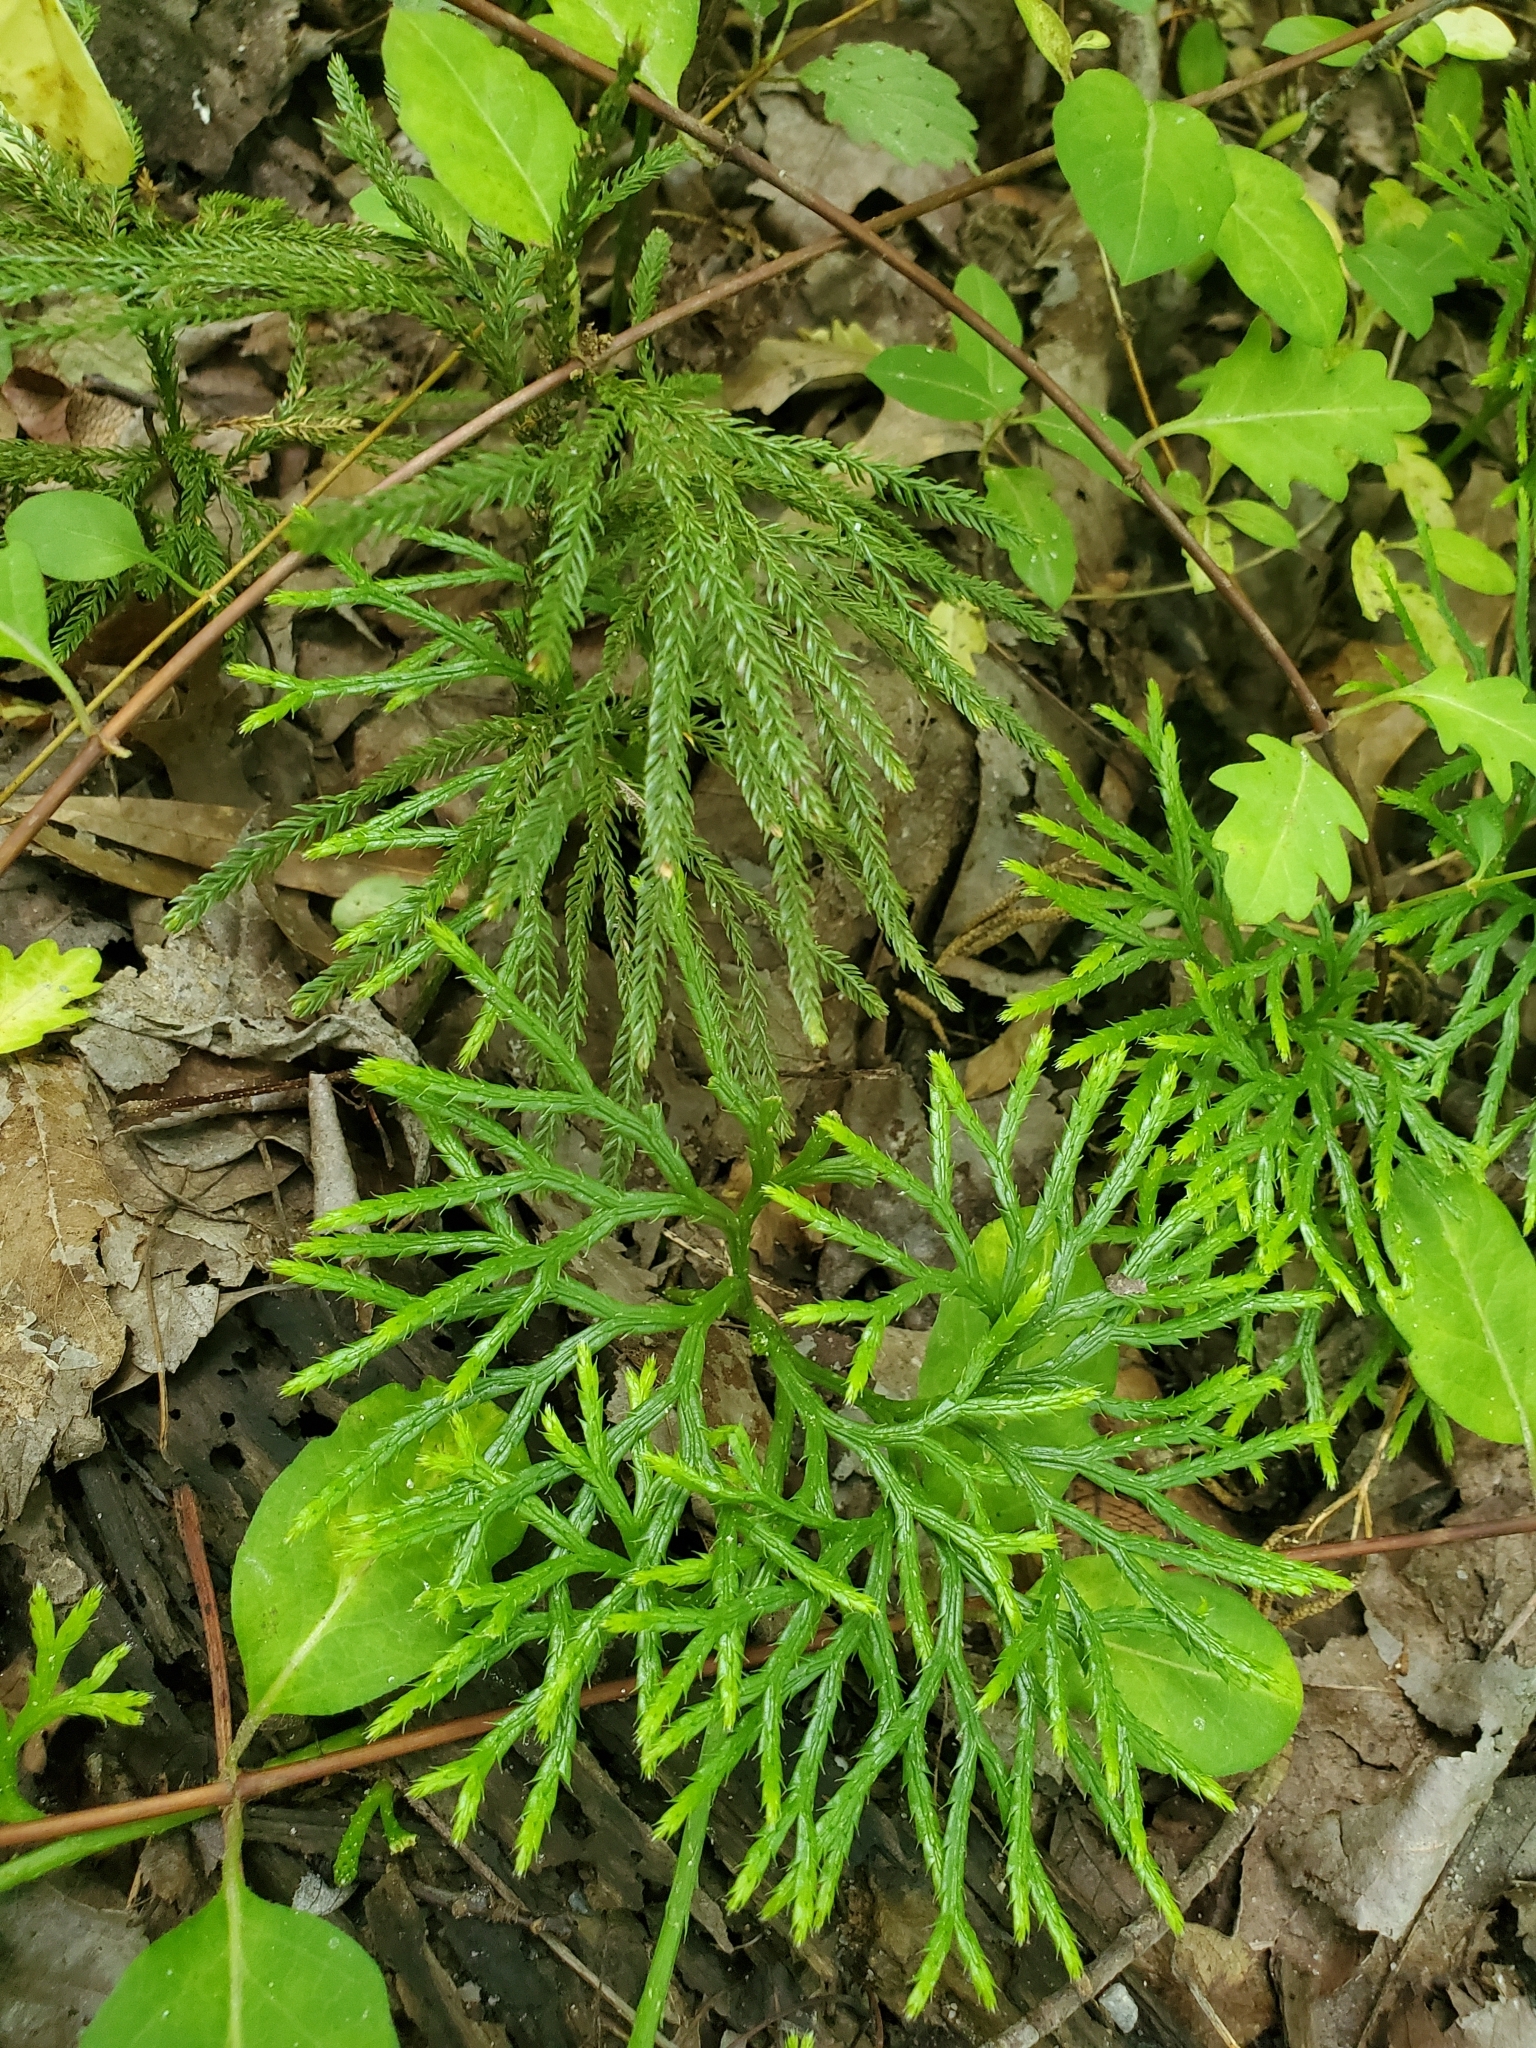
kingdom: Plantae
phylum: Tracheophyta
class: Lycopodiopsida
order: Lycopodiales
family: Lycopodiaceae
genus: Diphasiastrum
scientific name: Diphasiastrum digitatum
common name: Southern running-pine
